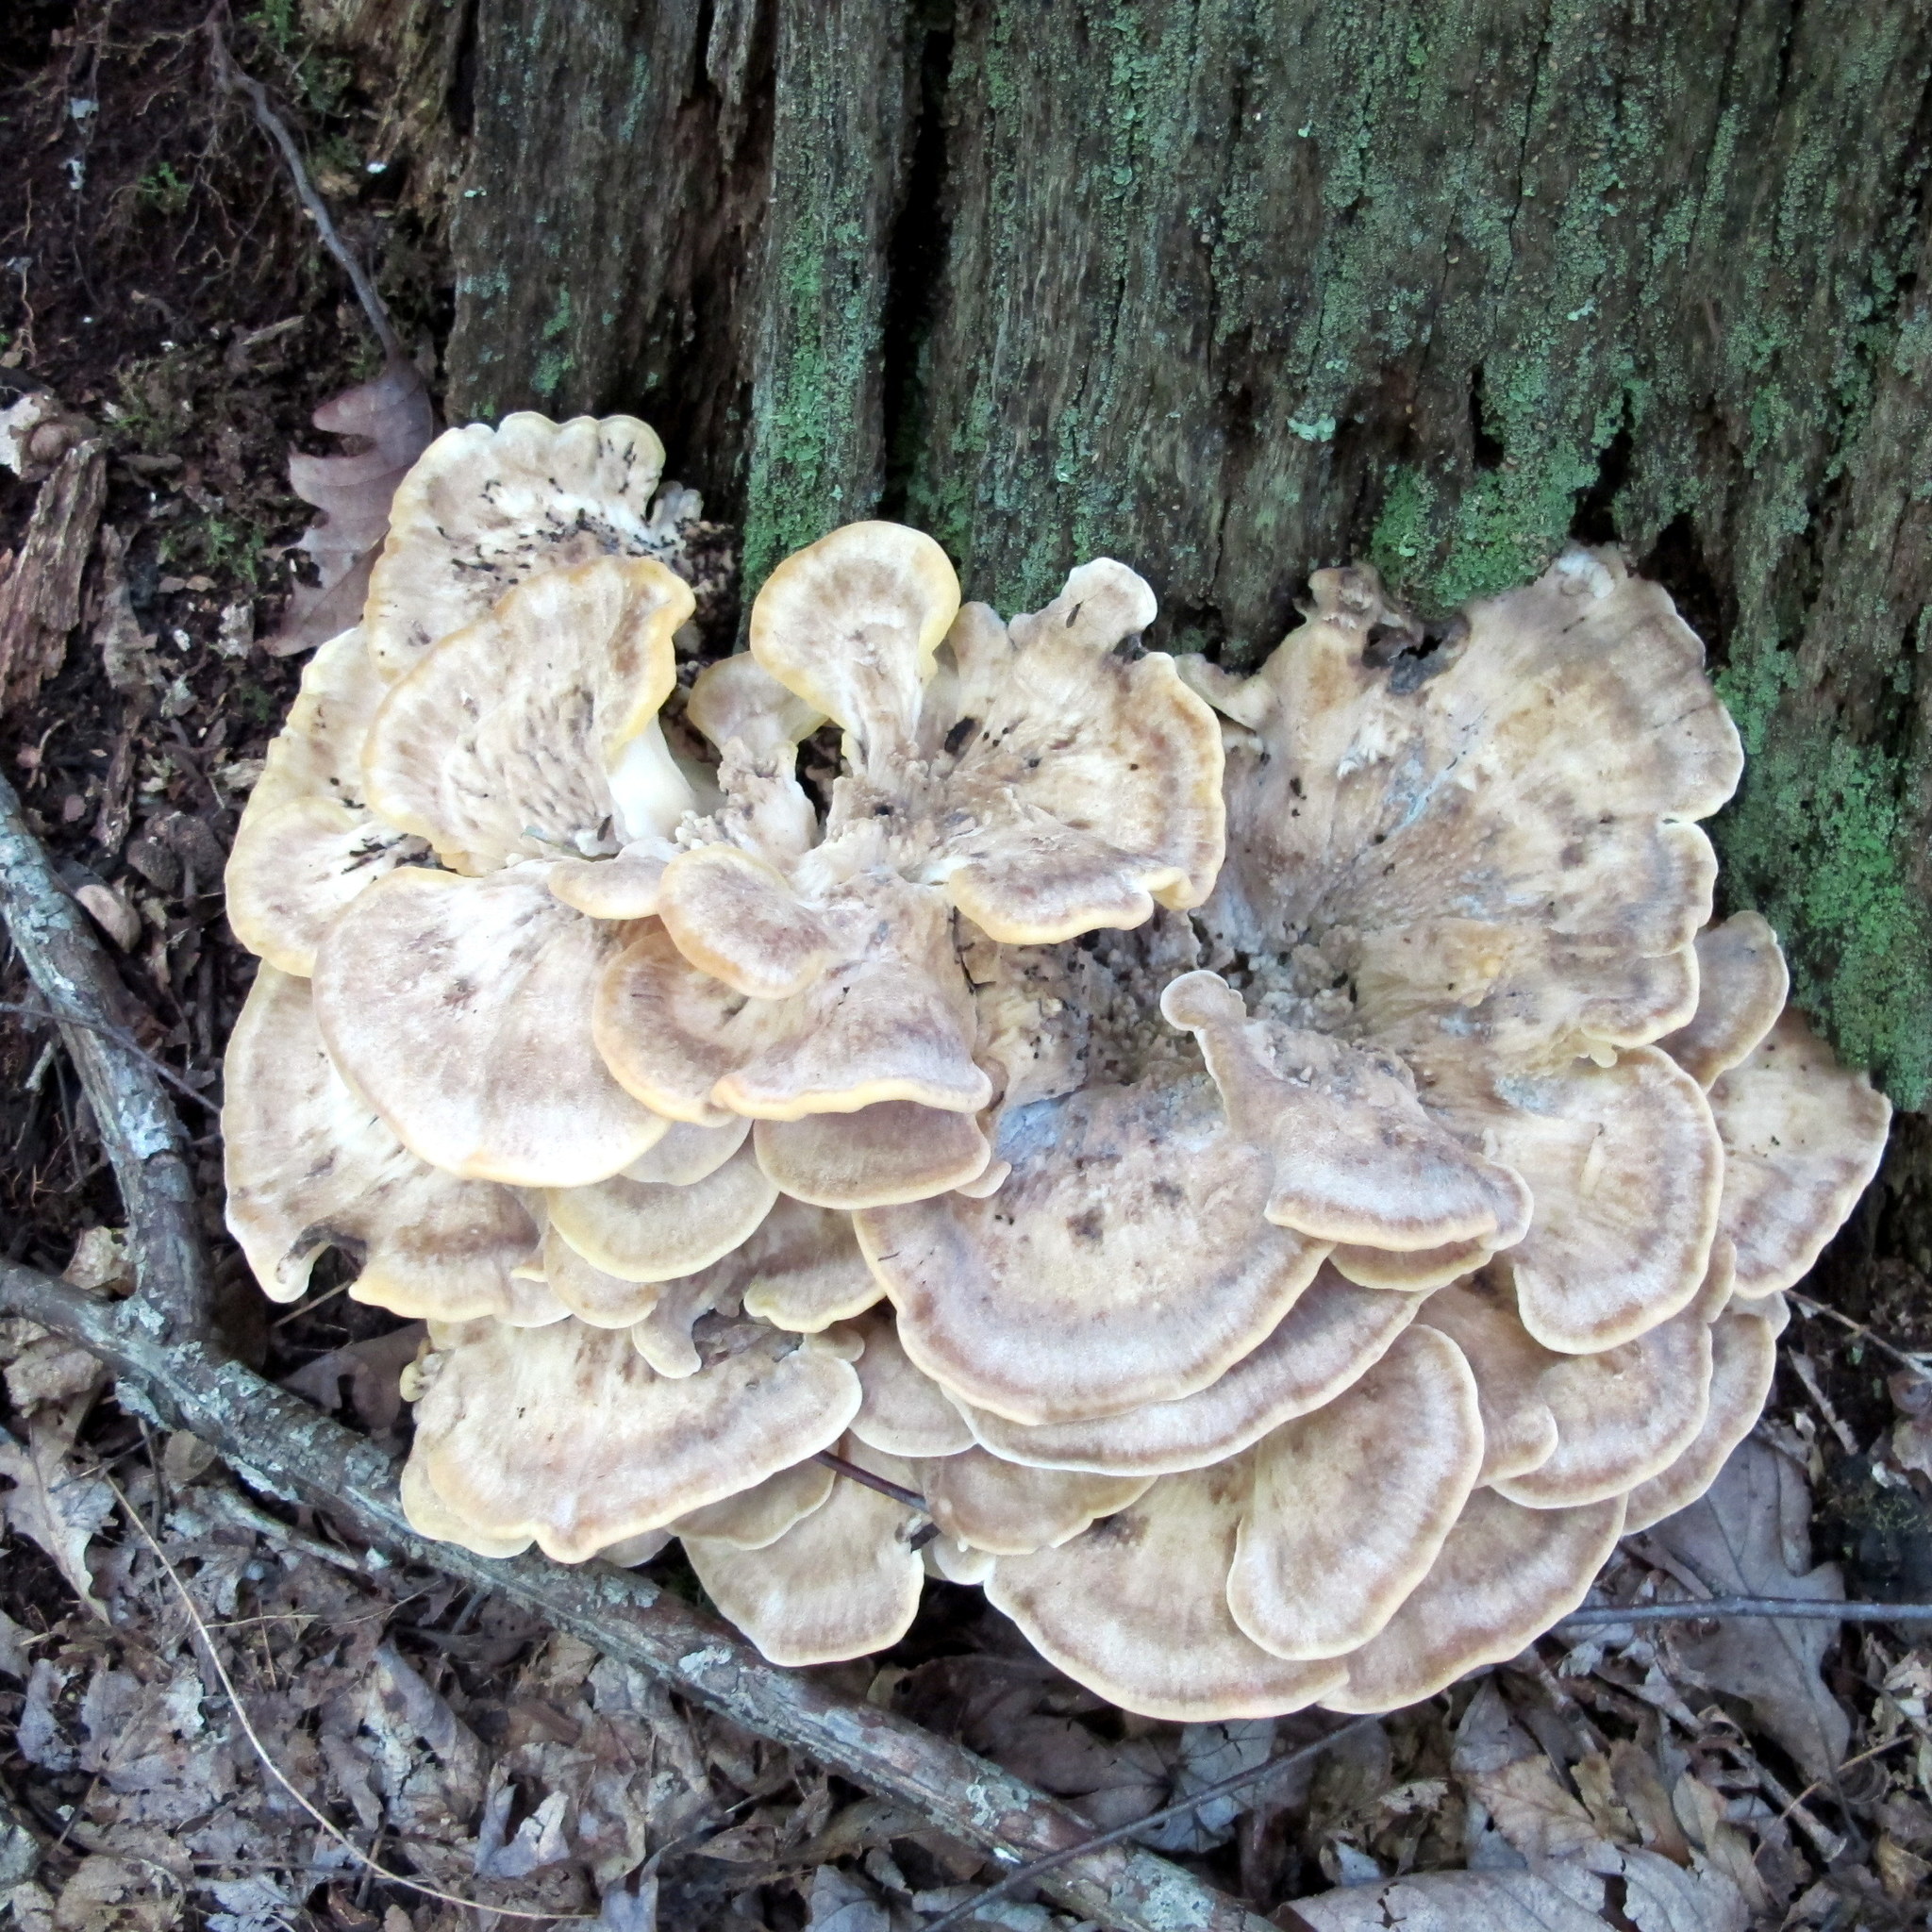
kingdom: Fungi
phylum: Basidiomycota
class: Agaricomycetes
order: Polyporales
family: Meripilaceae
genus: Meripilus
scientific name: Meripilus sumstinei
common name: Black-staining polypore
